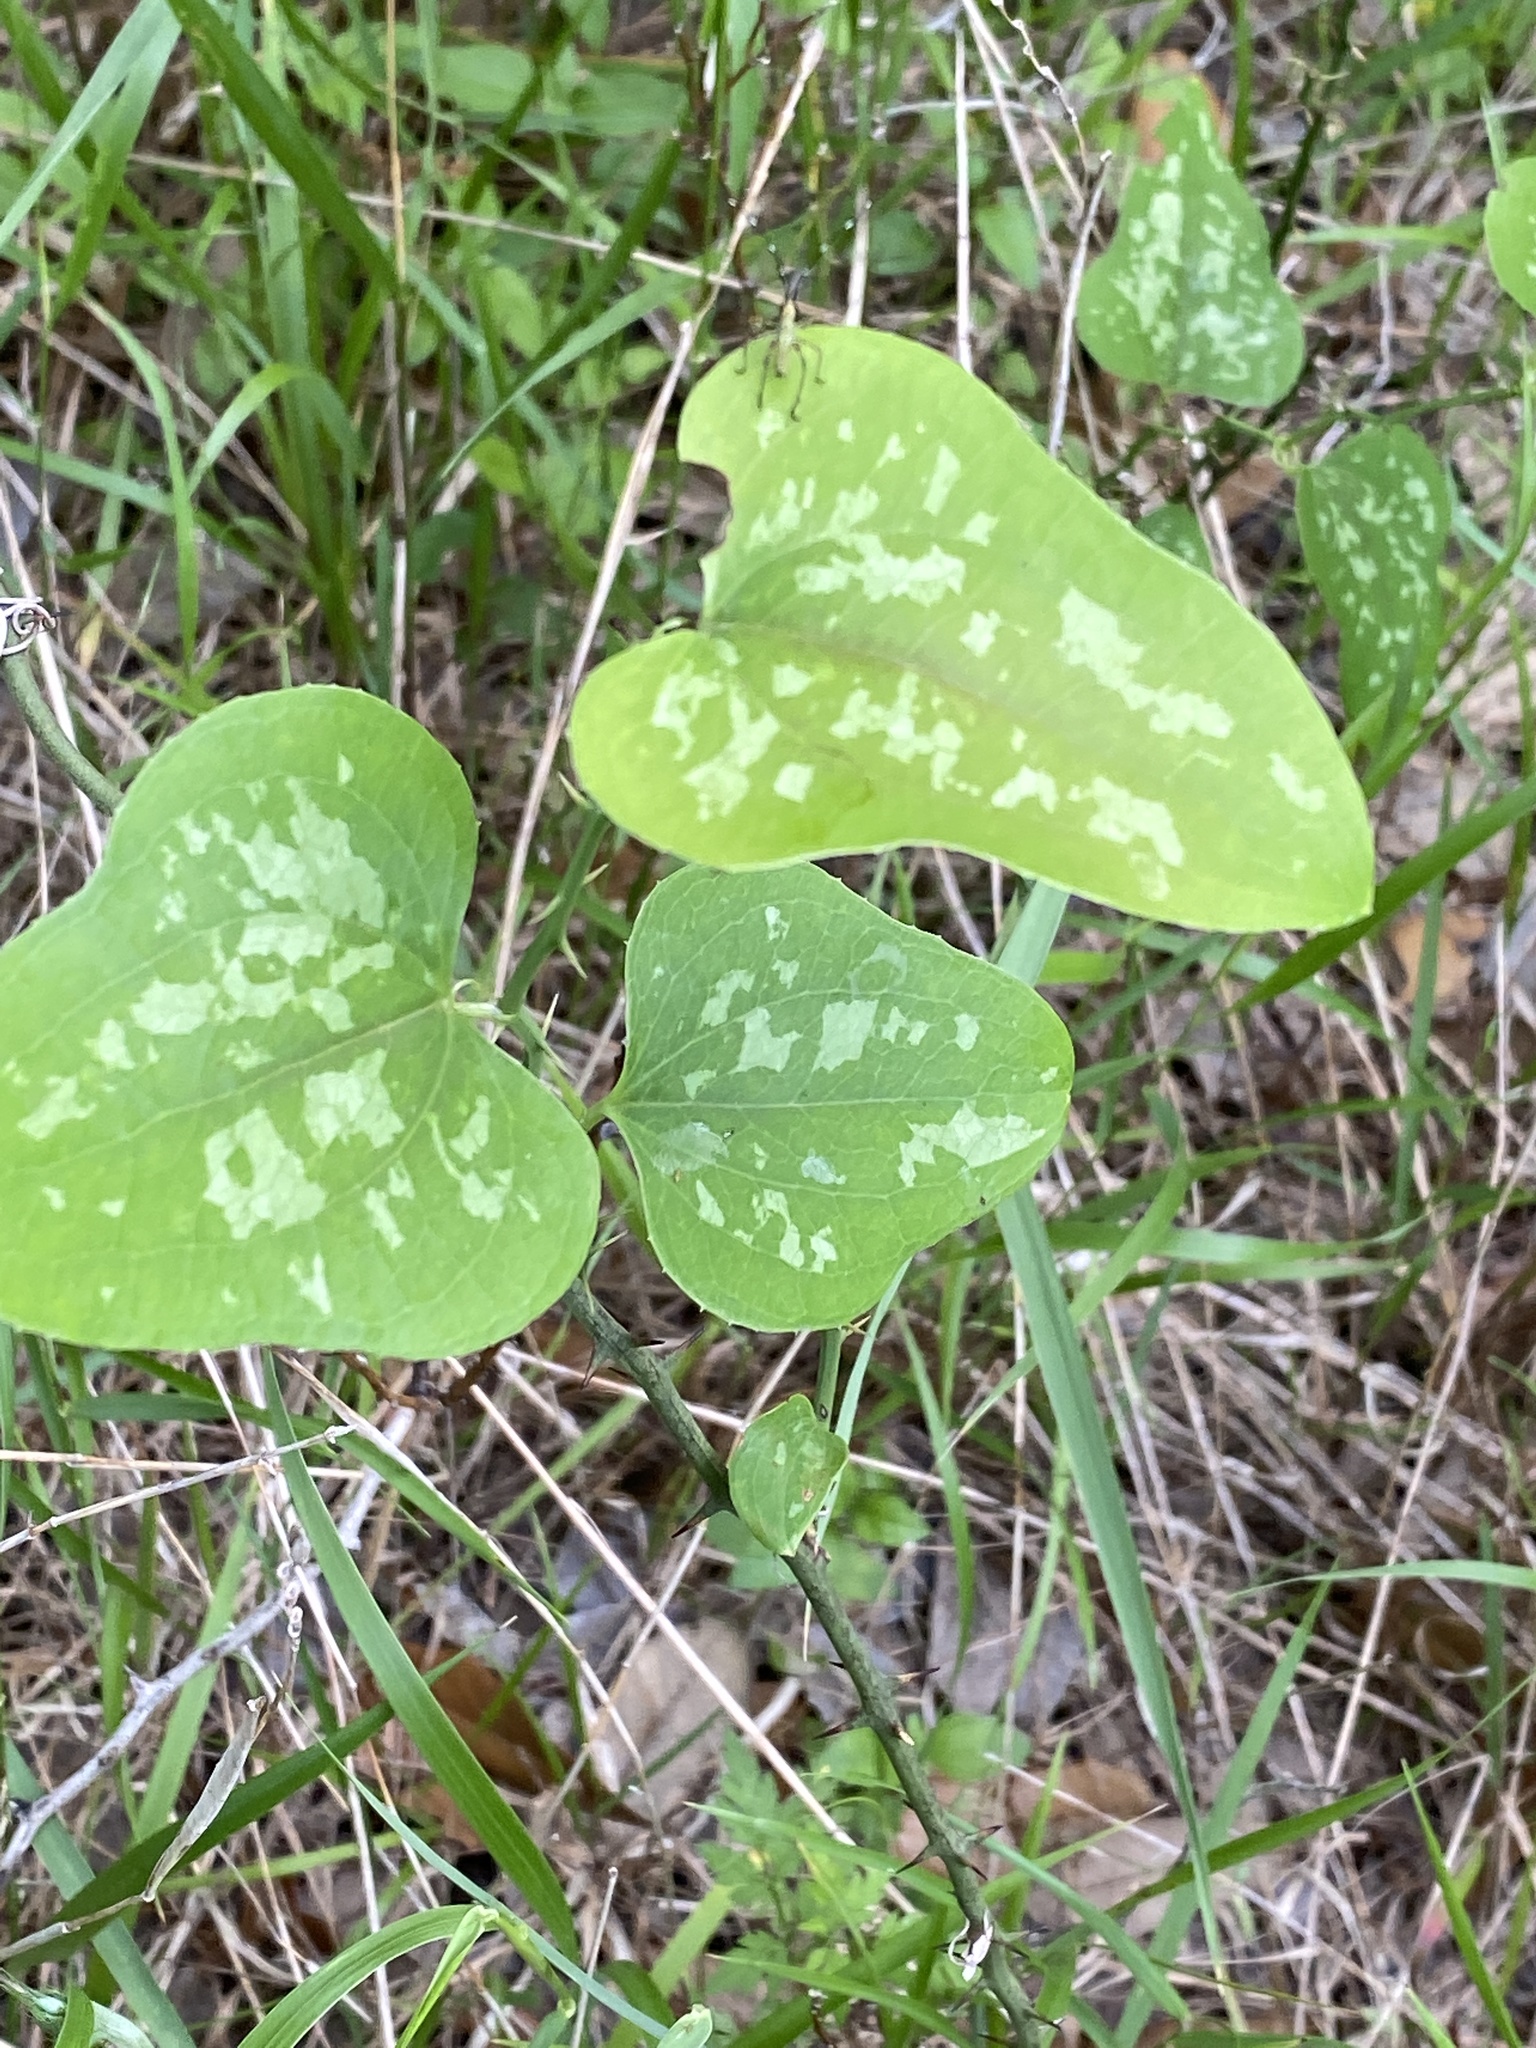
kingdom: Plantae
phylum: Tracheophyta
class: Liliopsida
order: Liliales
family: Smilacaceae
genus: Smilax
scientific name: Smilax bona-nox
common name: Catbrier
